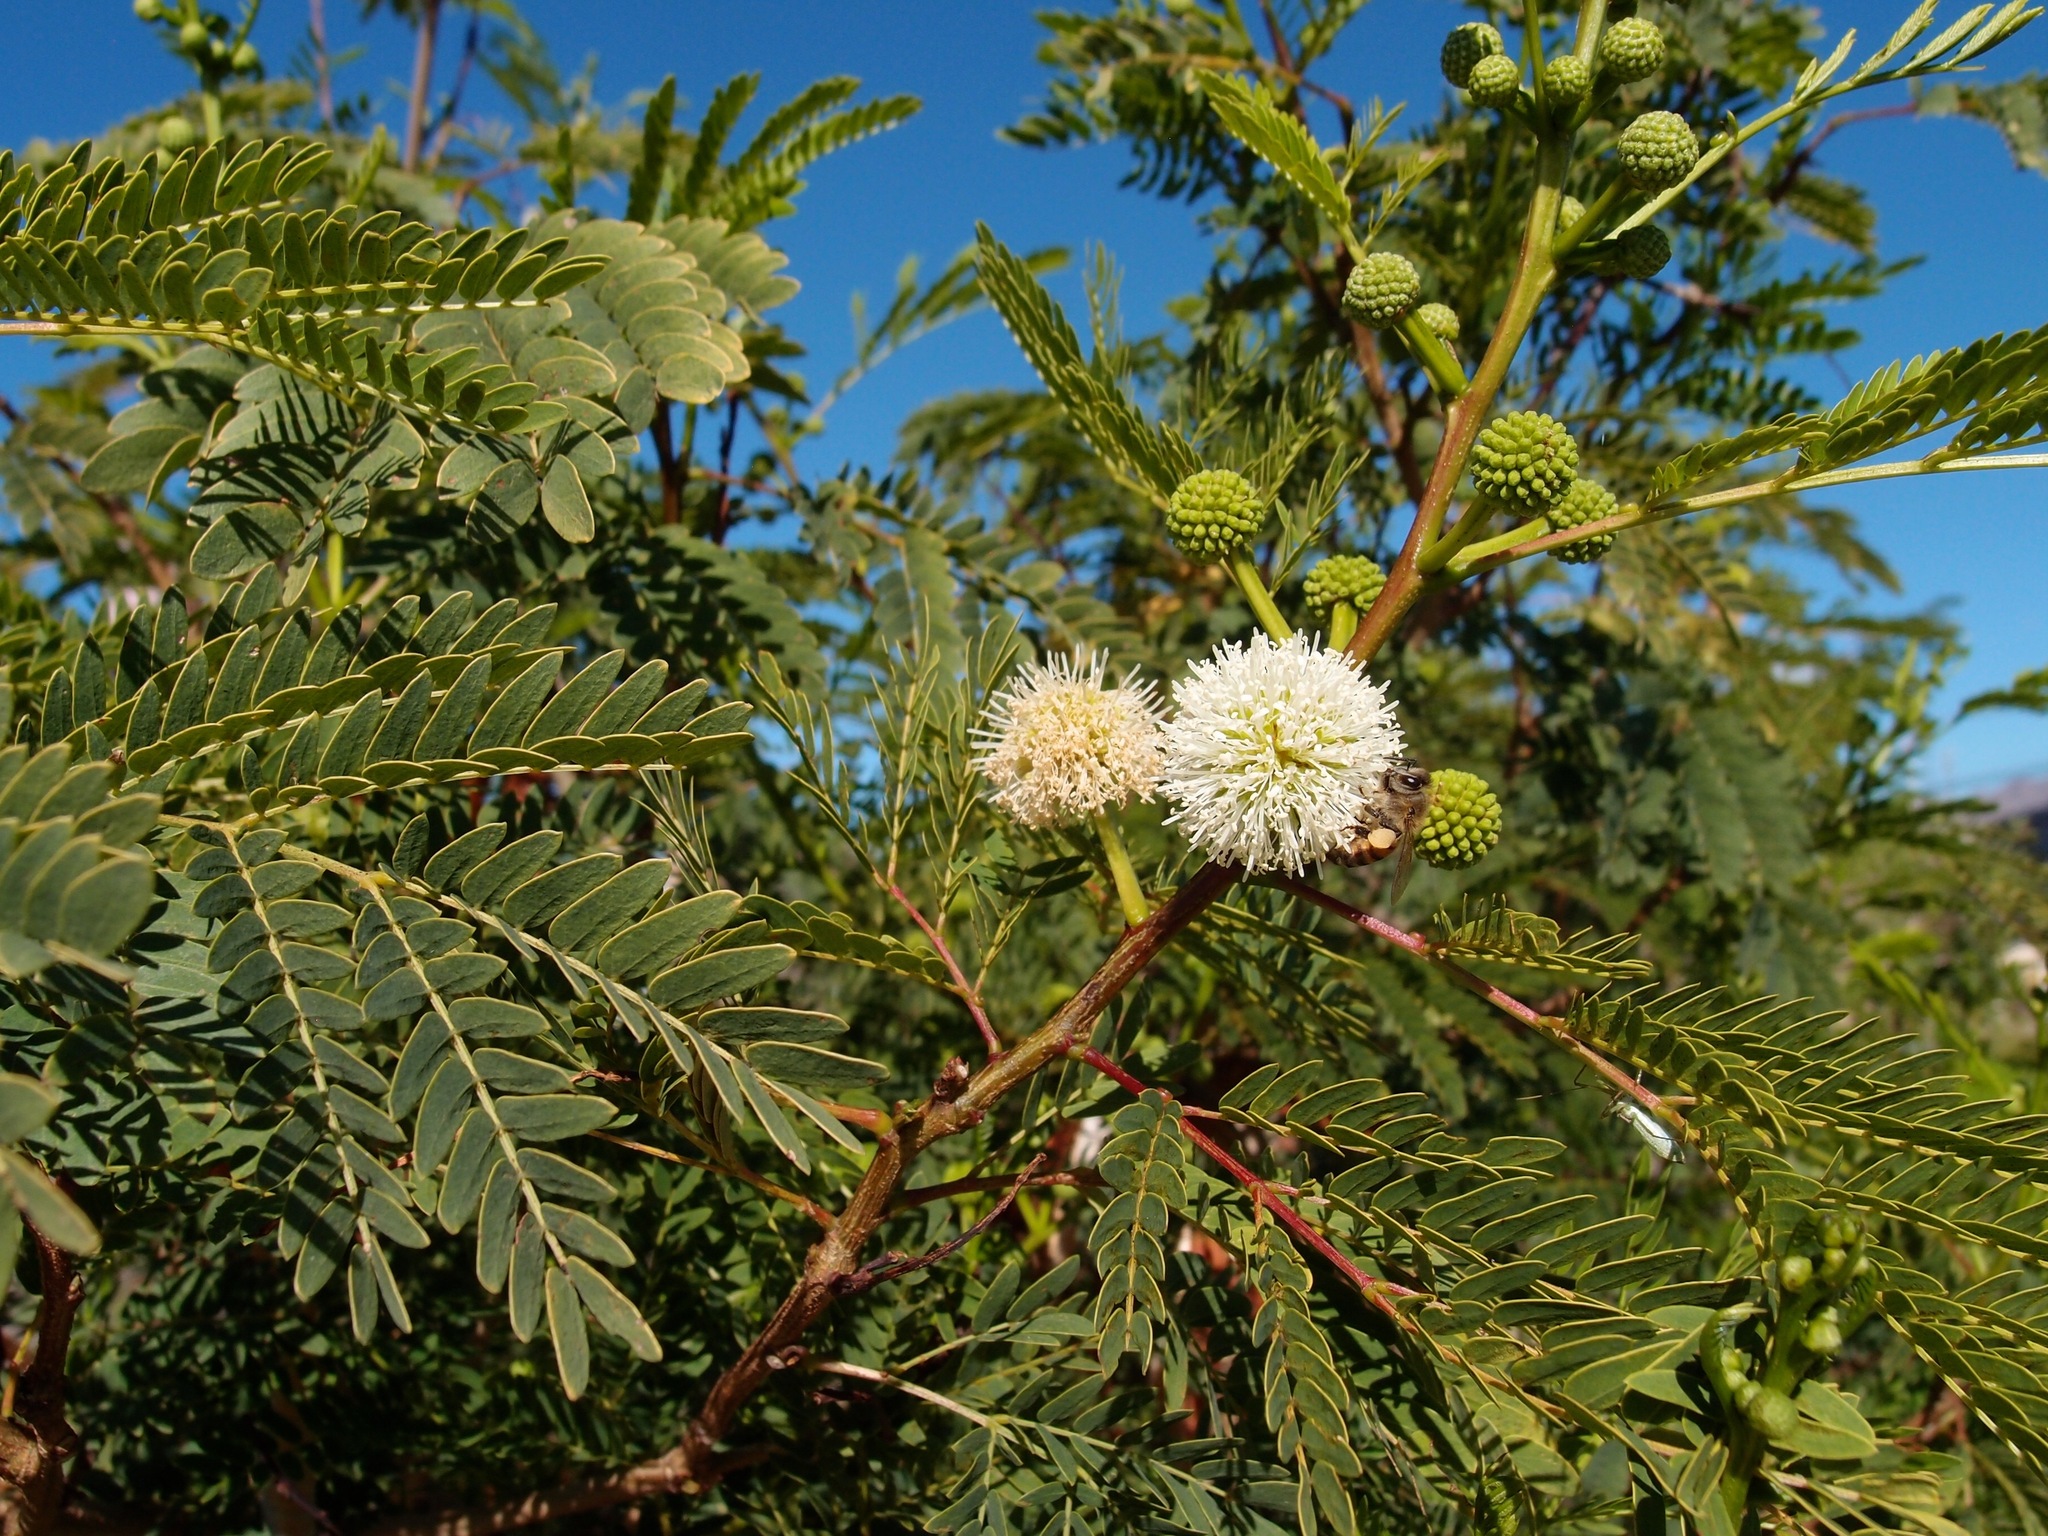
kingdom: Plantae
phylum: Tracheophyta
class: Magnoliopsida
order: Fabales
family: Fabaceae
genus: Leucaena
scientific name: Leucaena leucocephala
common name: White leadtree
